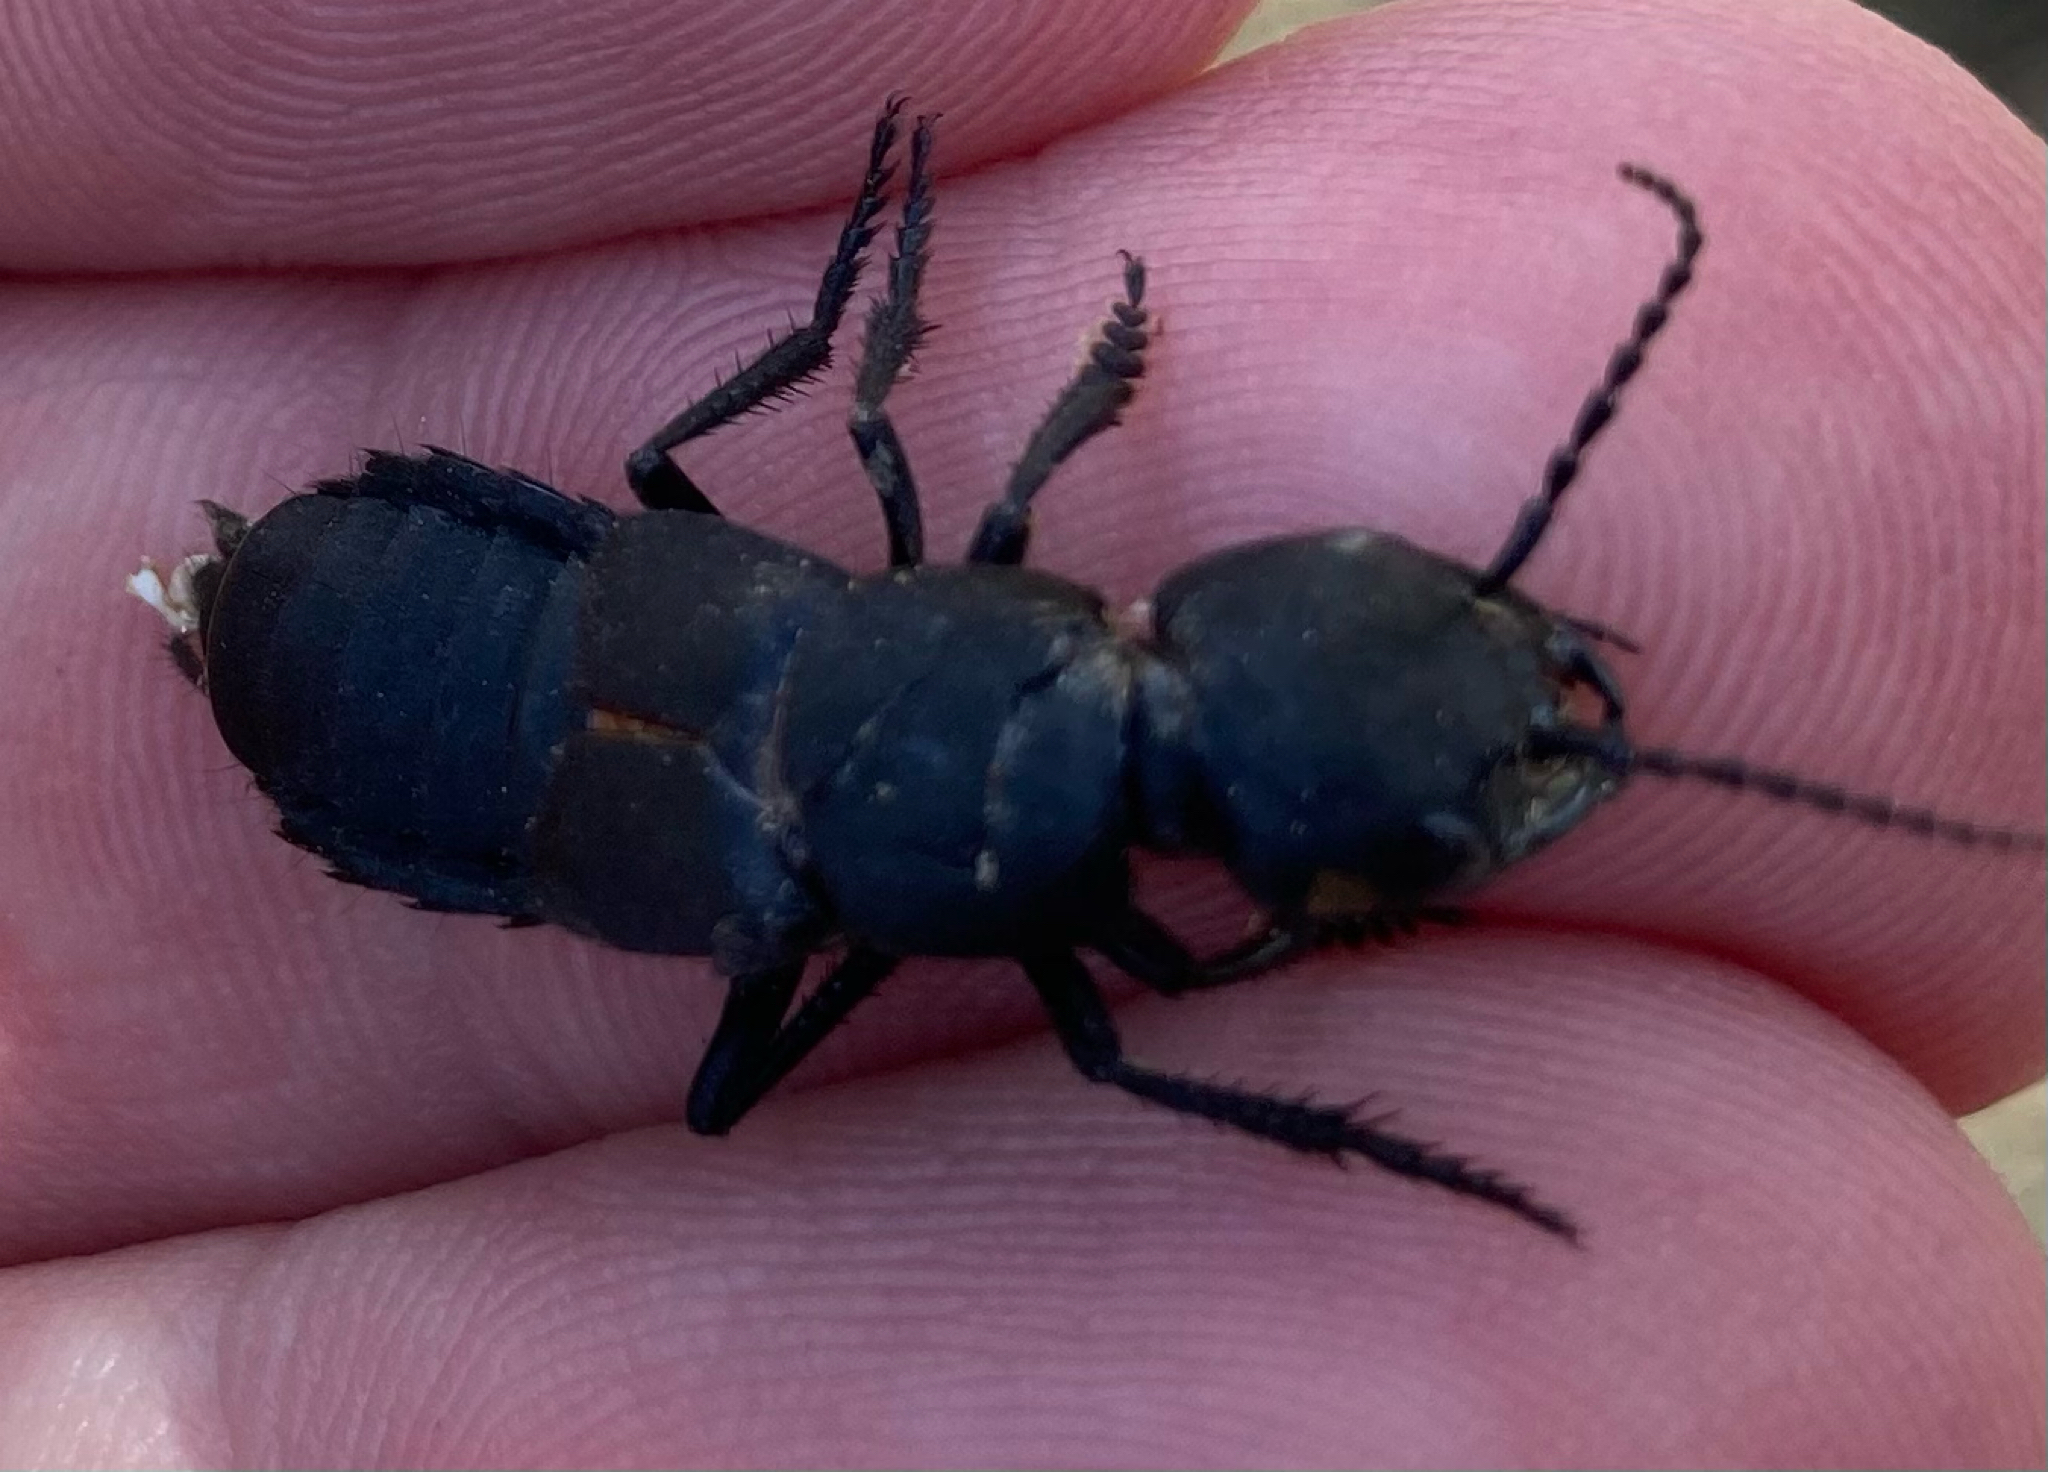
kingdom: Animalia
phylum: Arthropoda
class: Insecta
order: Coleoptera
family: Staphylinidae
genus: Ocypus
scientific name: Ocypus olens
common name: Devil's coach-horse
